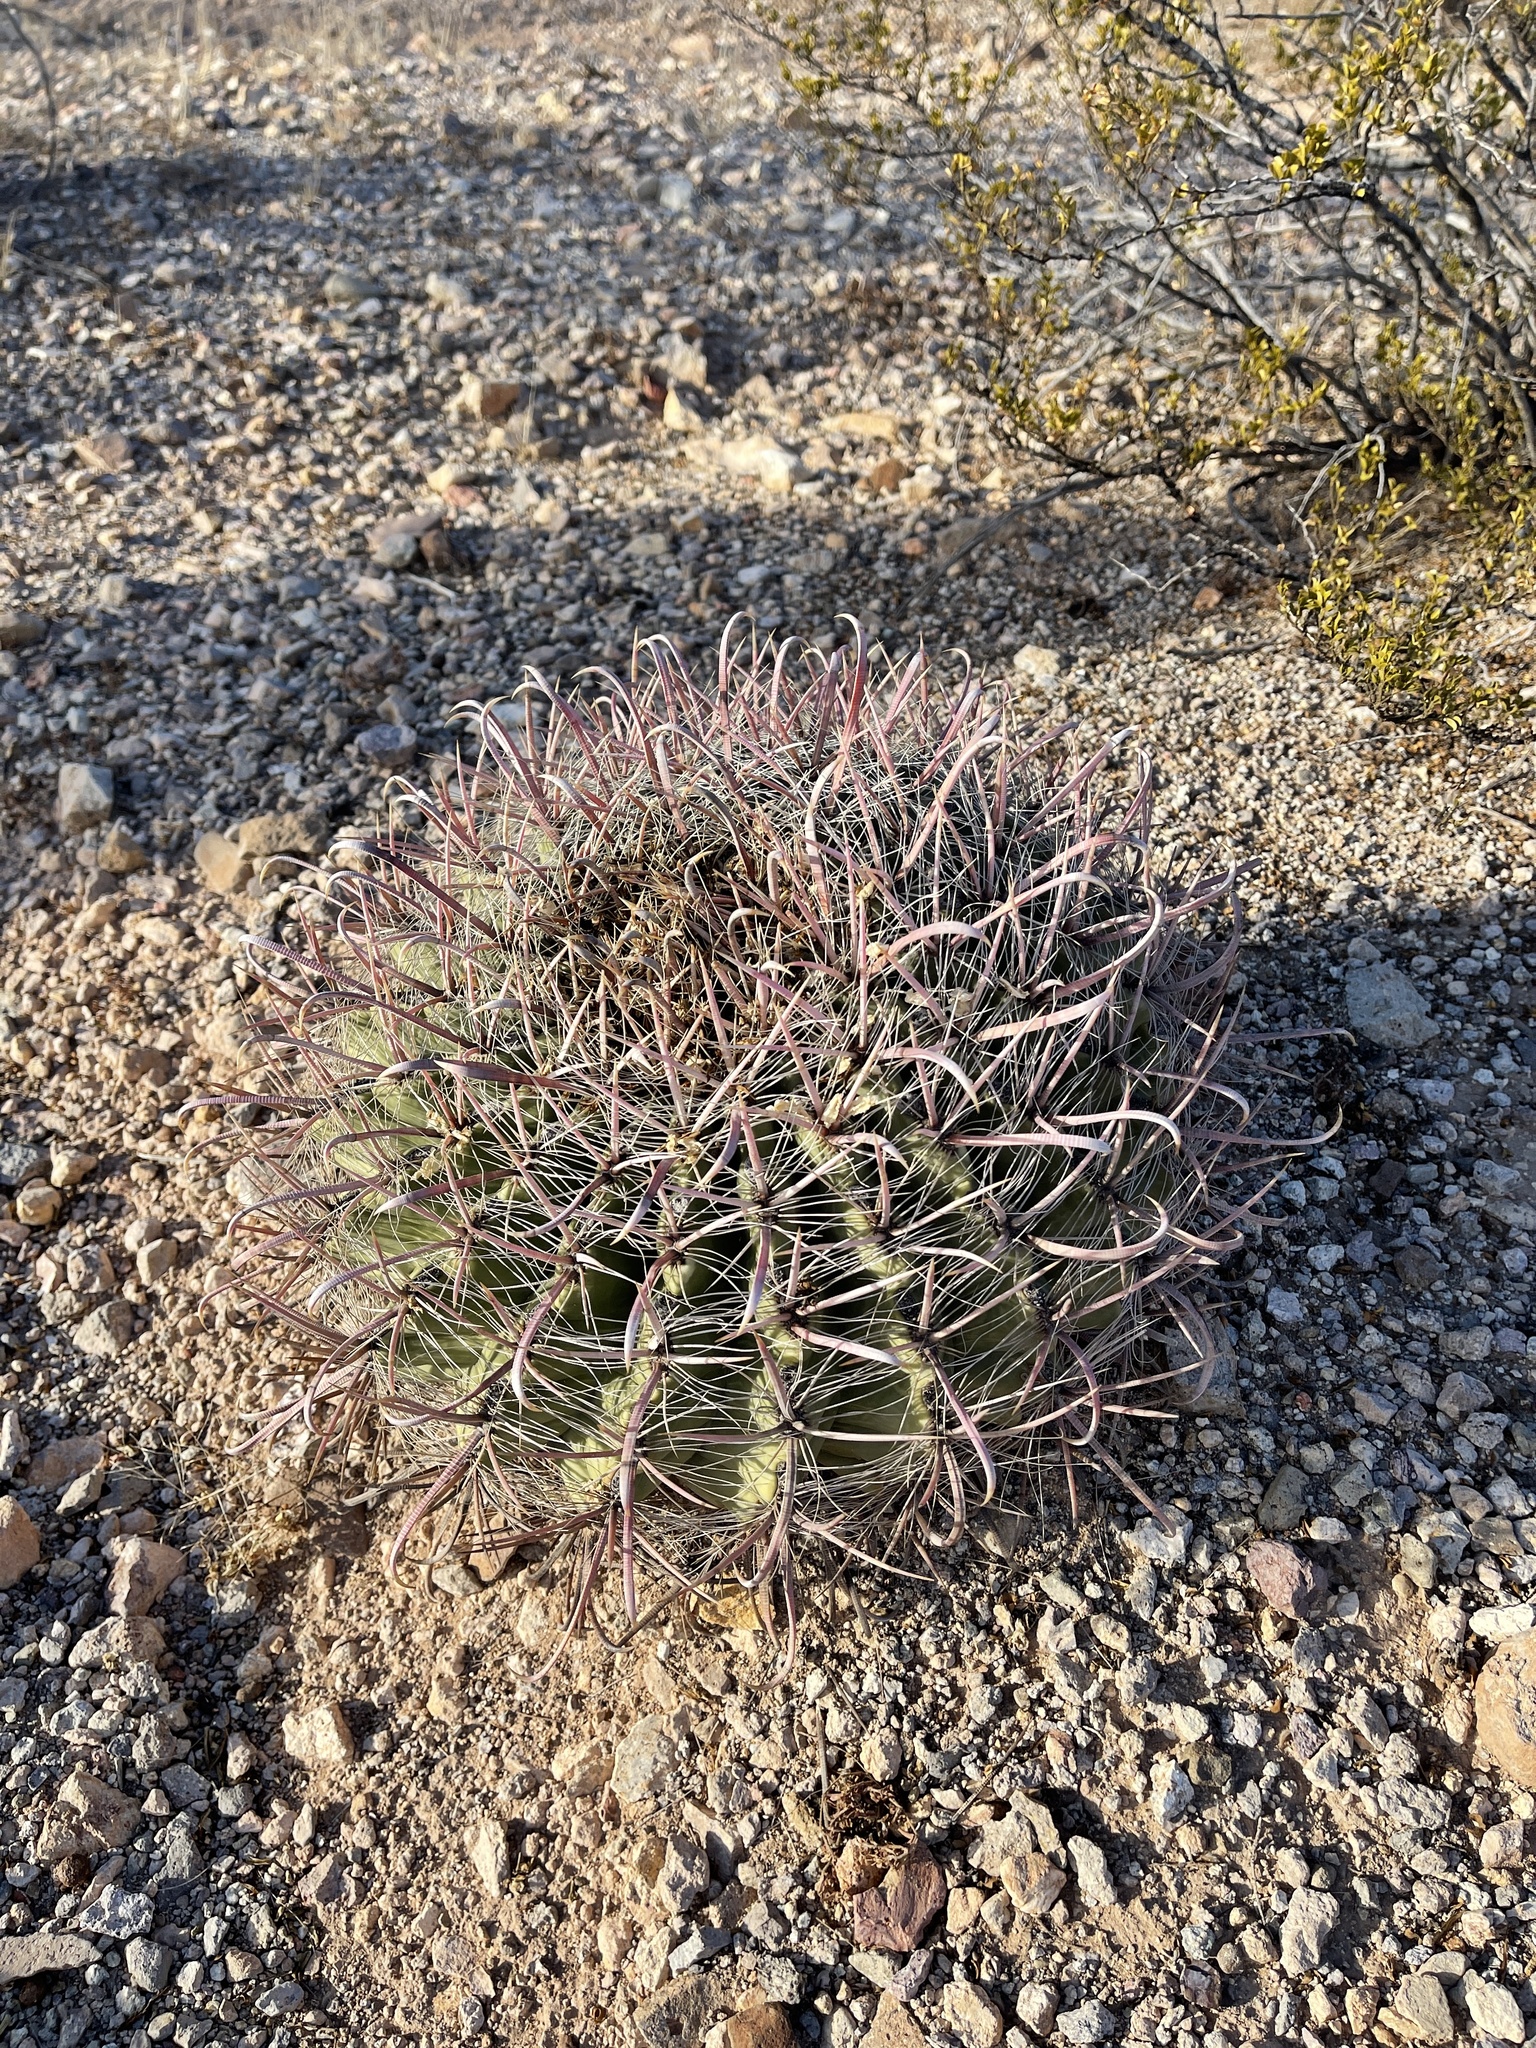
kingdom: Plantae
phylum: Tracheophyta
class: Magnoliopsida
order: Caryophyllales
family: Cactaceae
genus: Ferocactus
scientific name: Ferocactus wislizeni
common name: Candy barrel cactus
